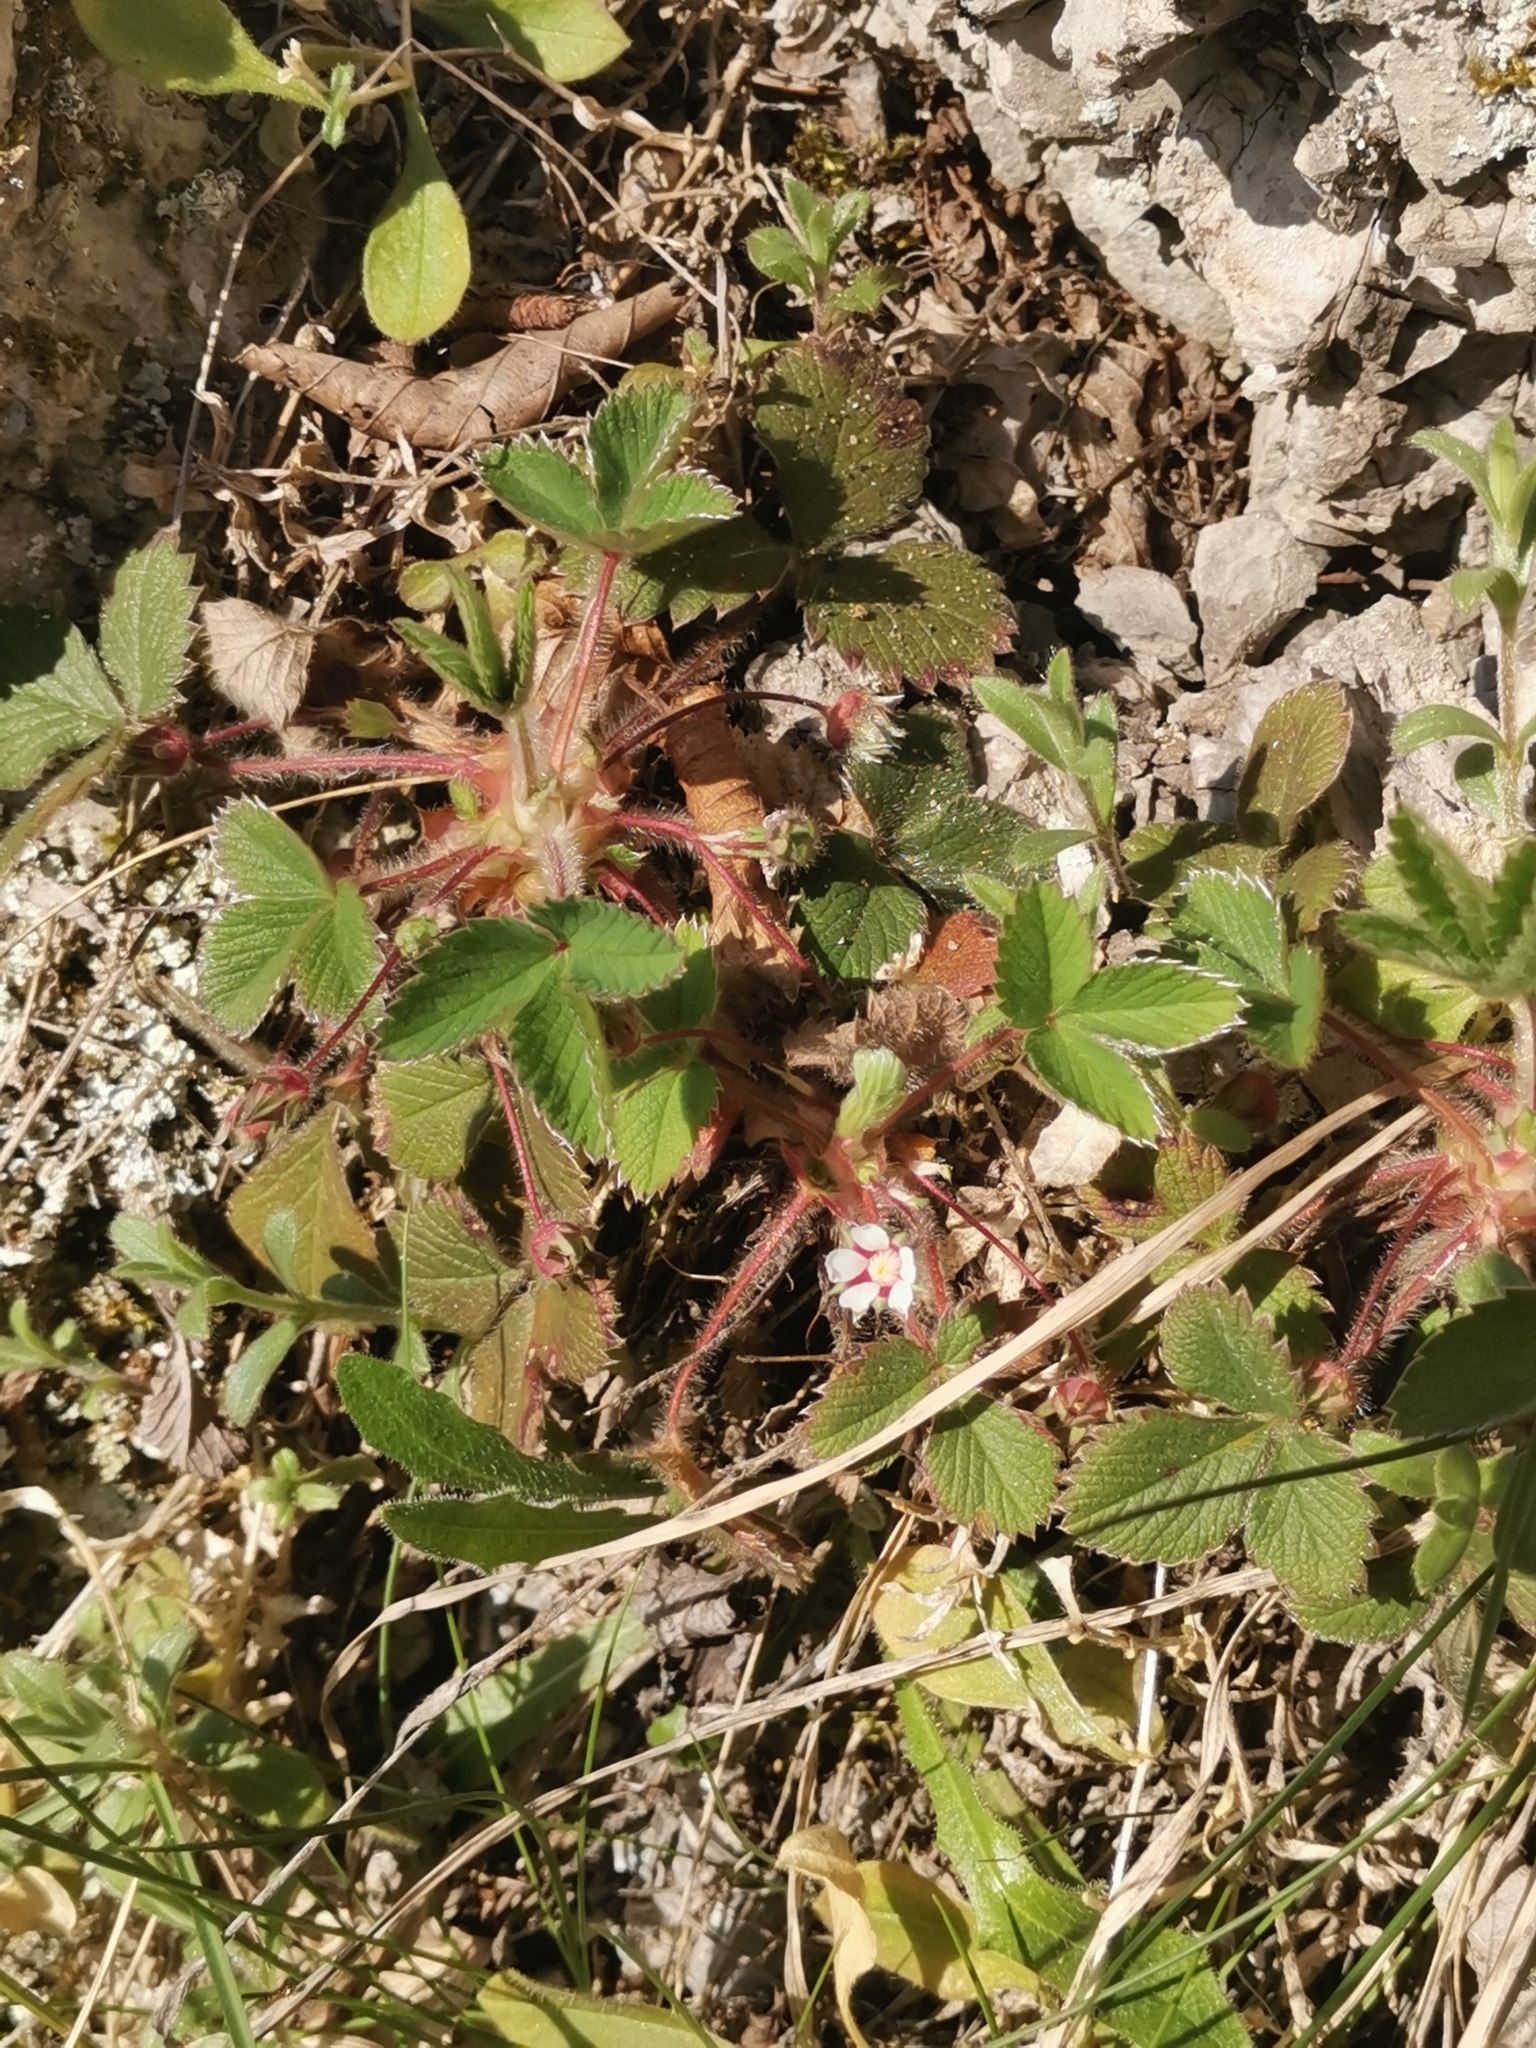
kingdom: Plantae
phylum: Tracheophyta
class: Magnoliopsida
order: Rosales
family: Rosaceae
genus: Potentilla
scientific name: Potentilla micrantha
